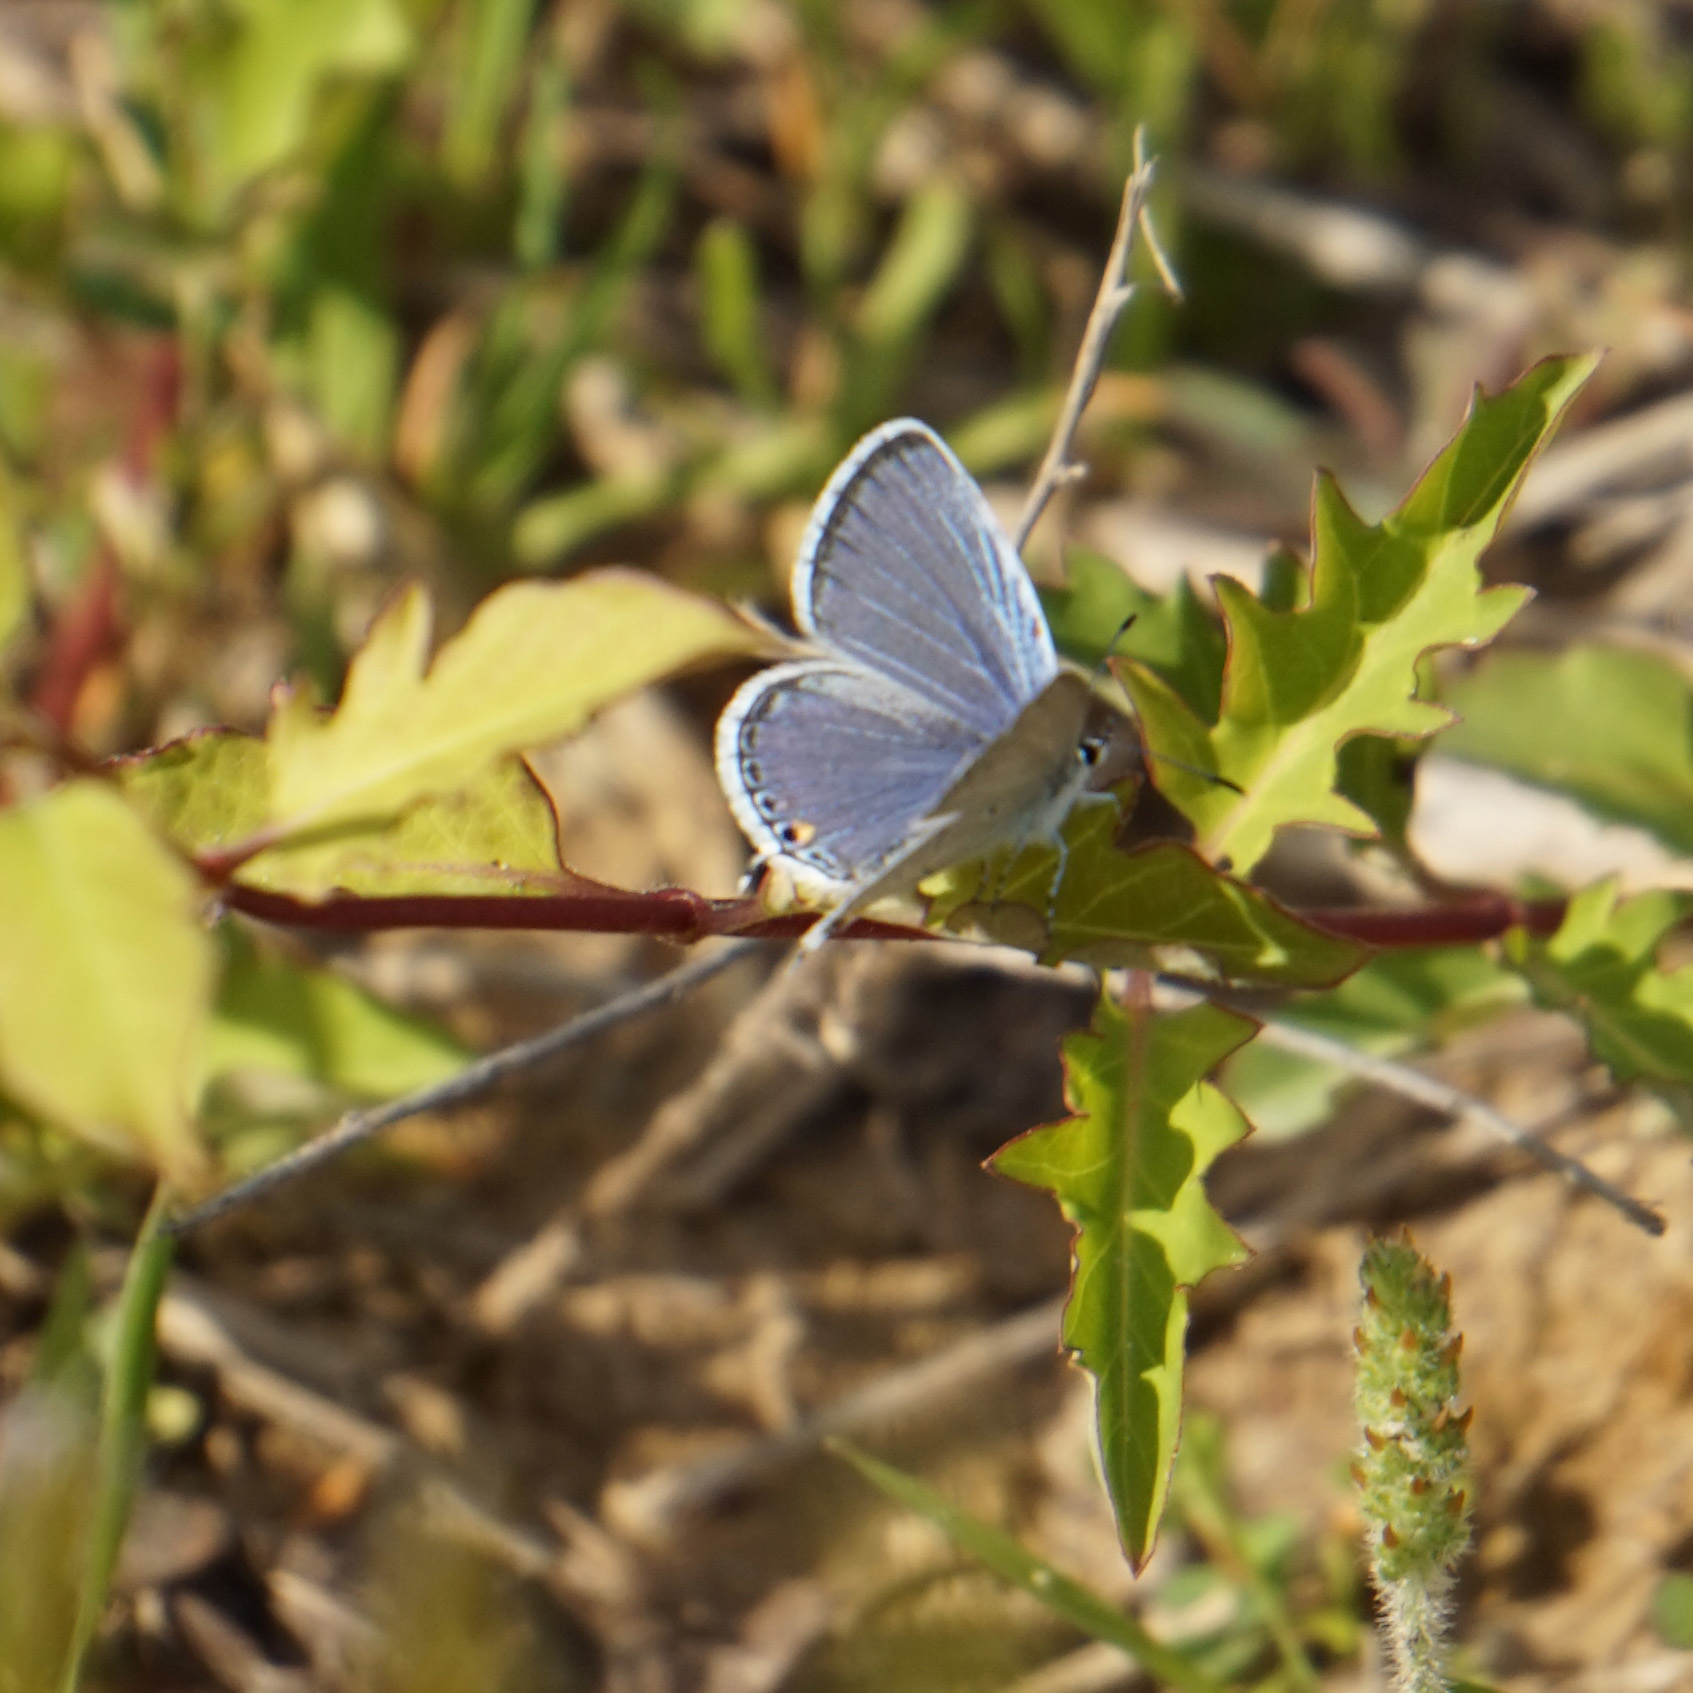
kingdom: Animalia
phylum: Arthropoda
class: Insecta
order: Lepidoptera
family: Lycaenidae
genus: Elkalyce
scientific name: Elkalyce comyntas
